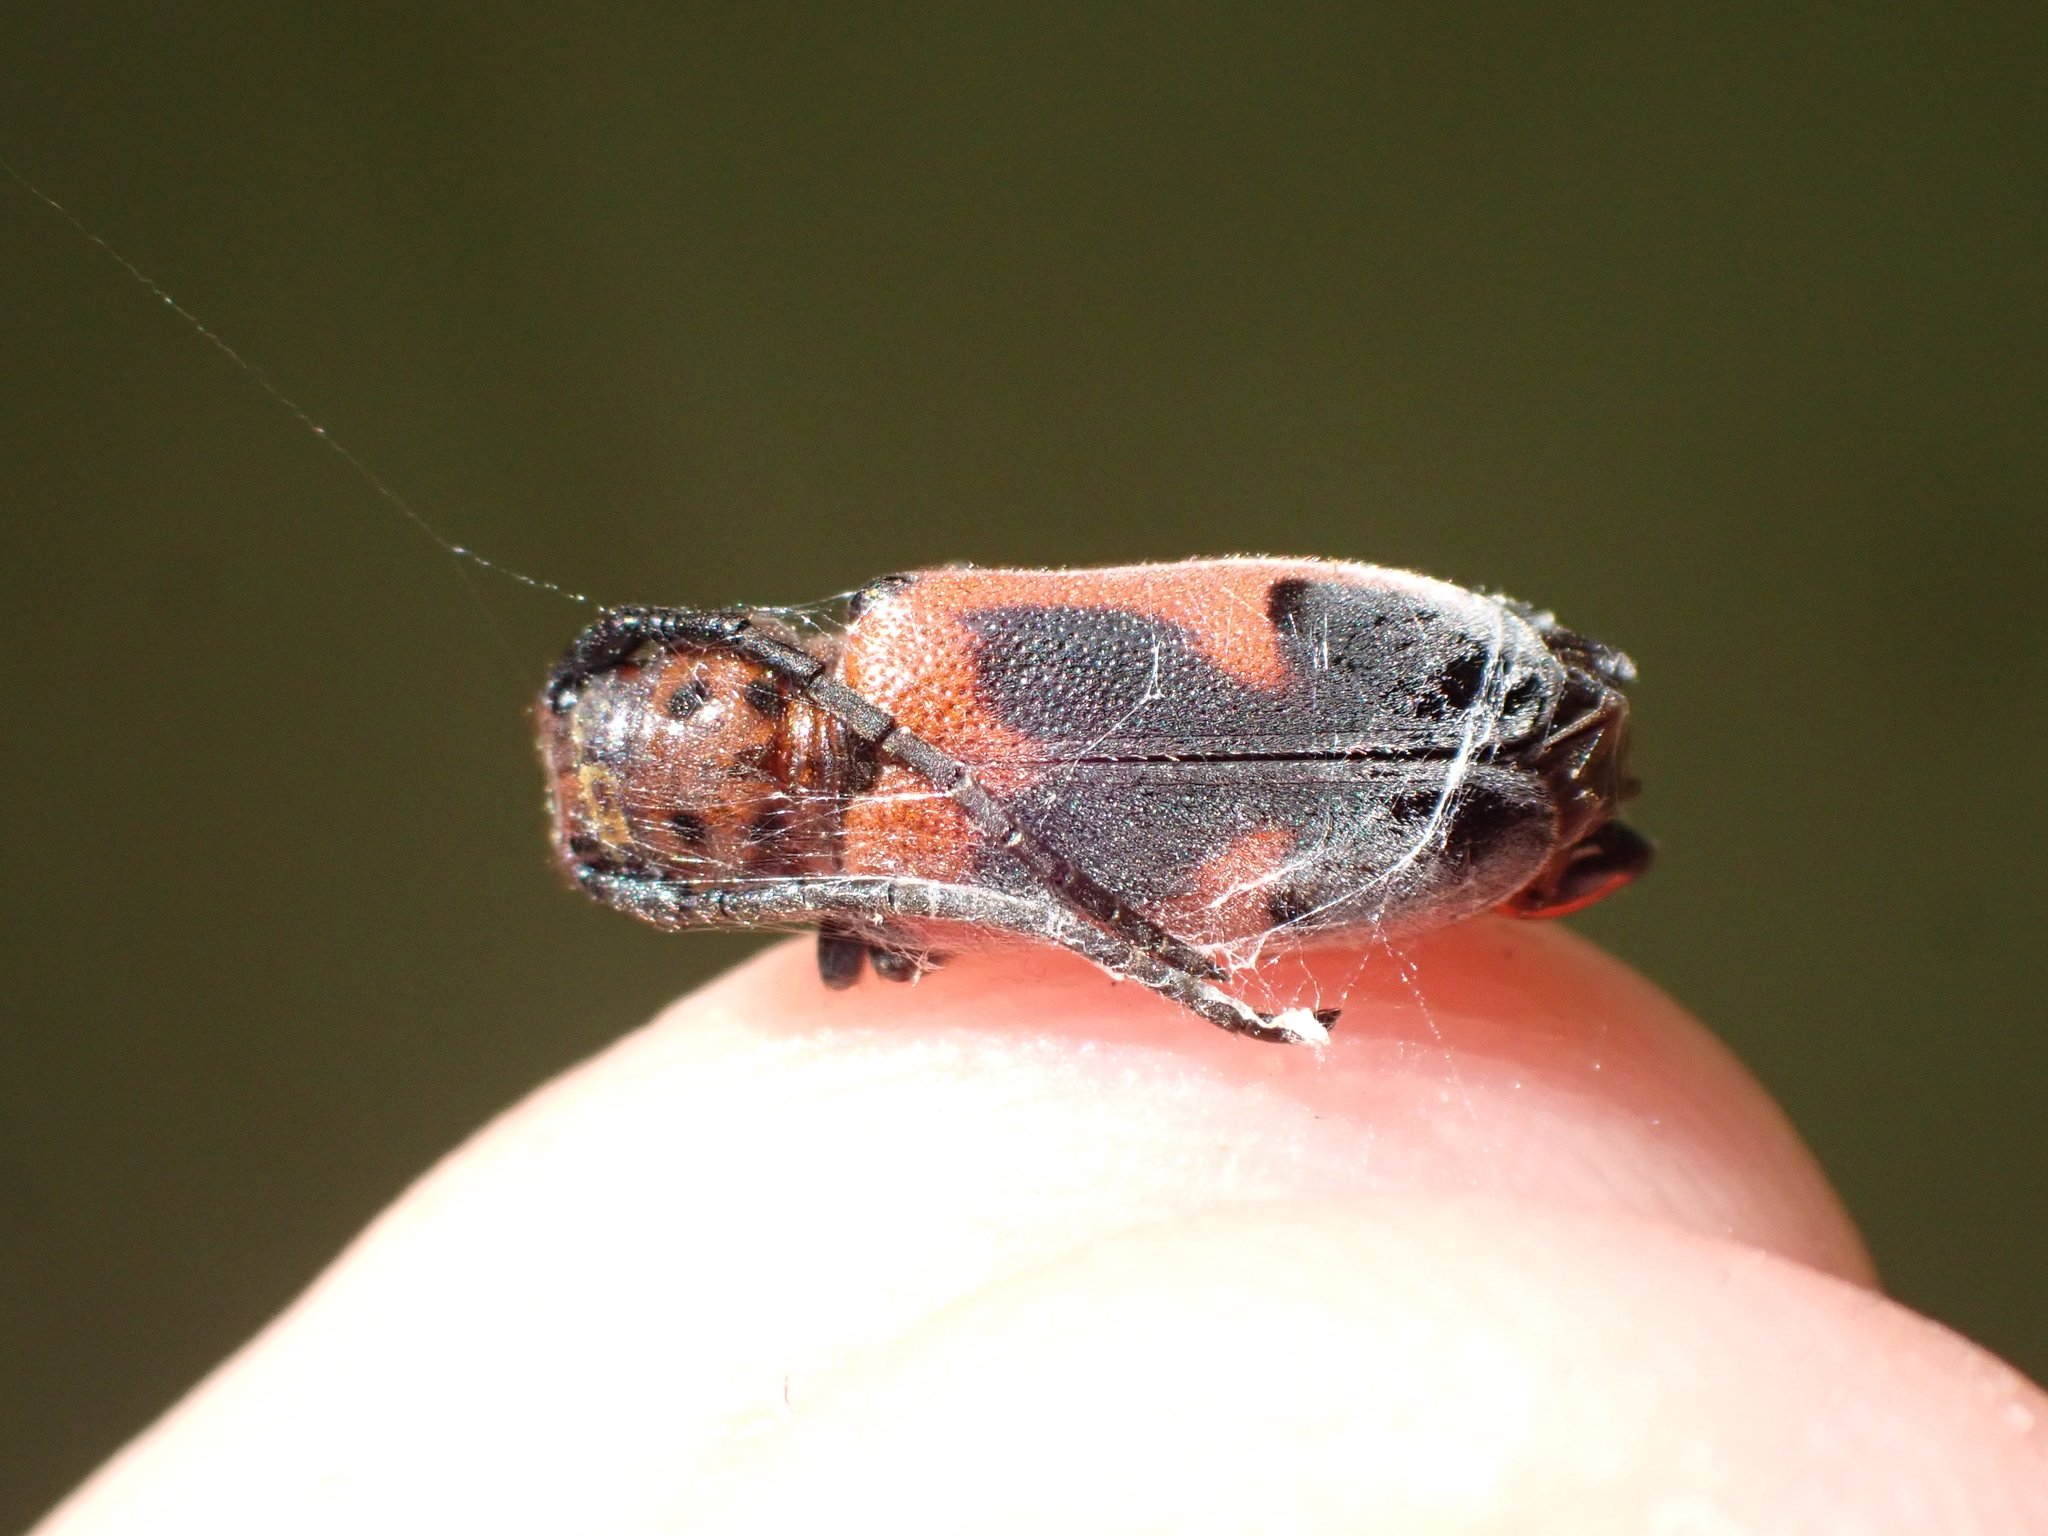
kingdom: Animalia
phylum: Arthropoda
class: Insecta
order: Coleoptera
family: Cerambycidae
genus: Tetraopes
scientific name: Tetraopes melanurus
